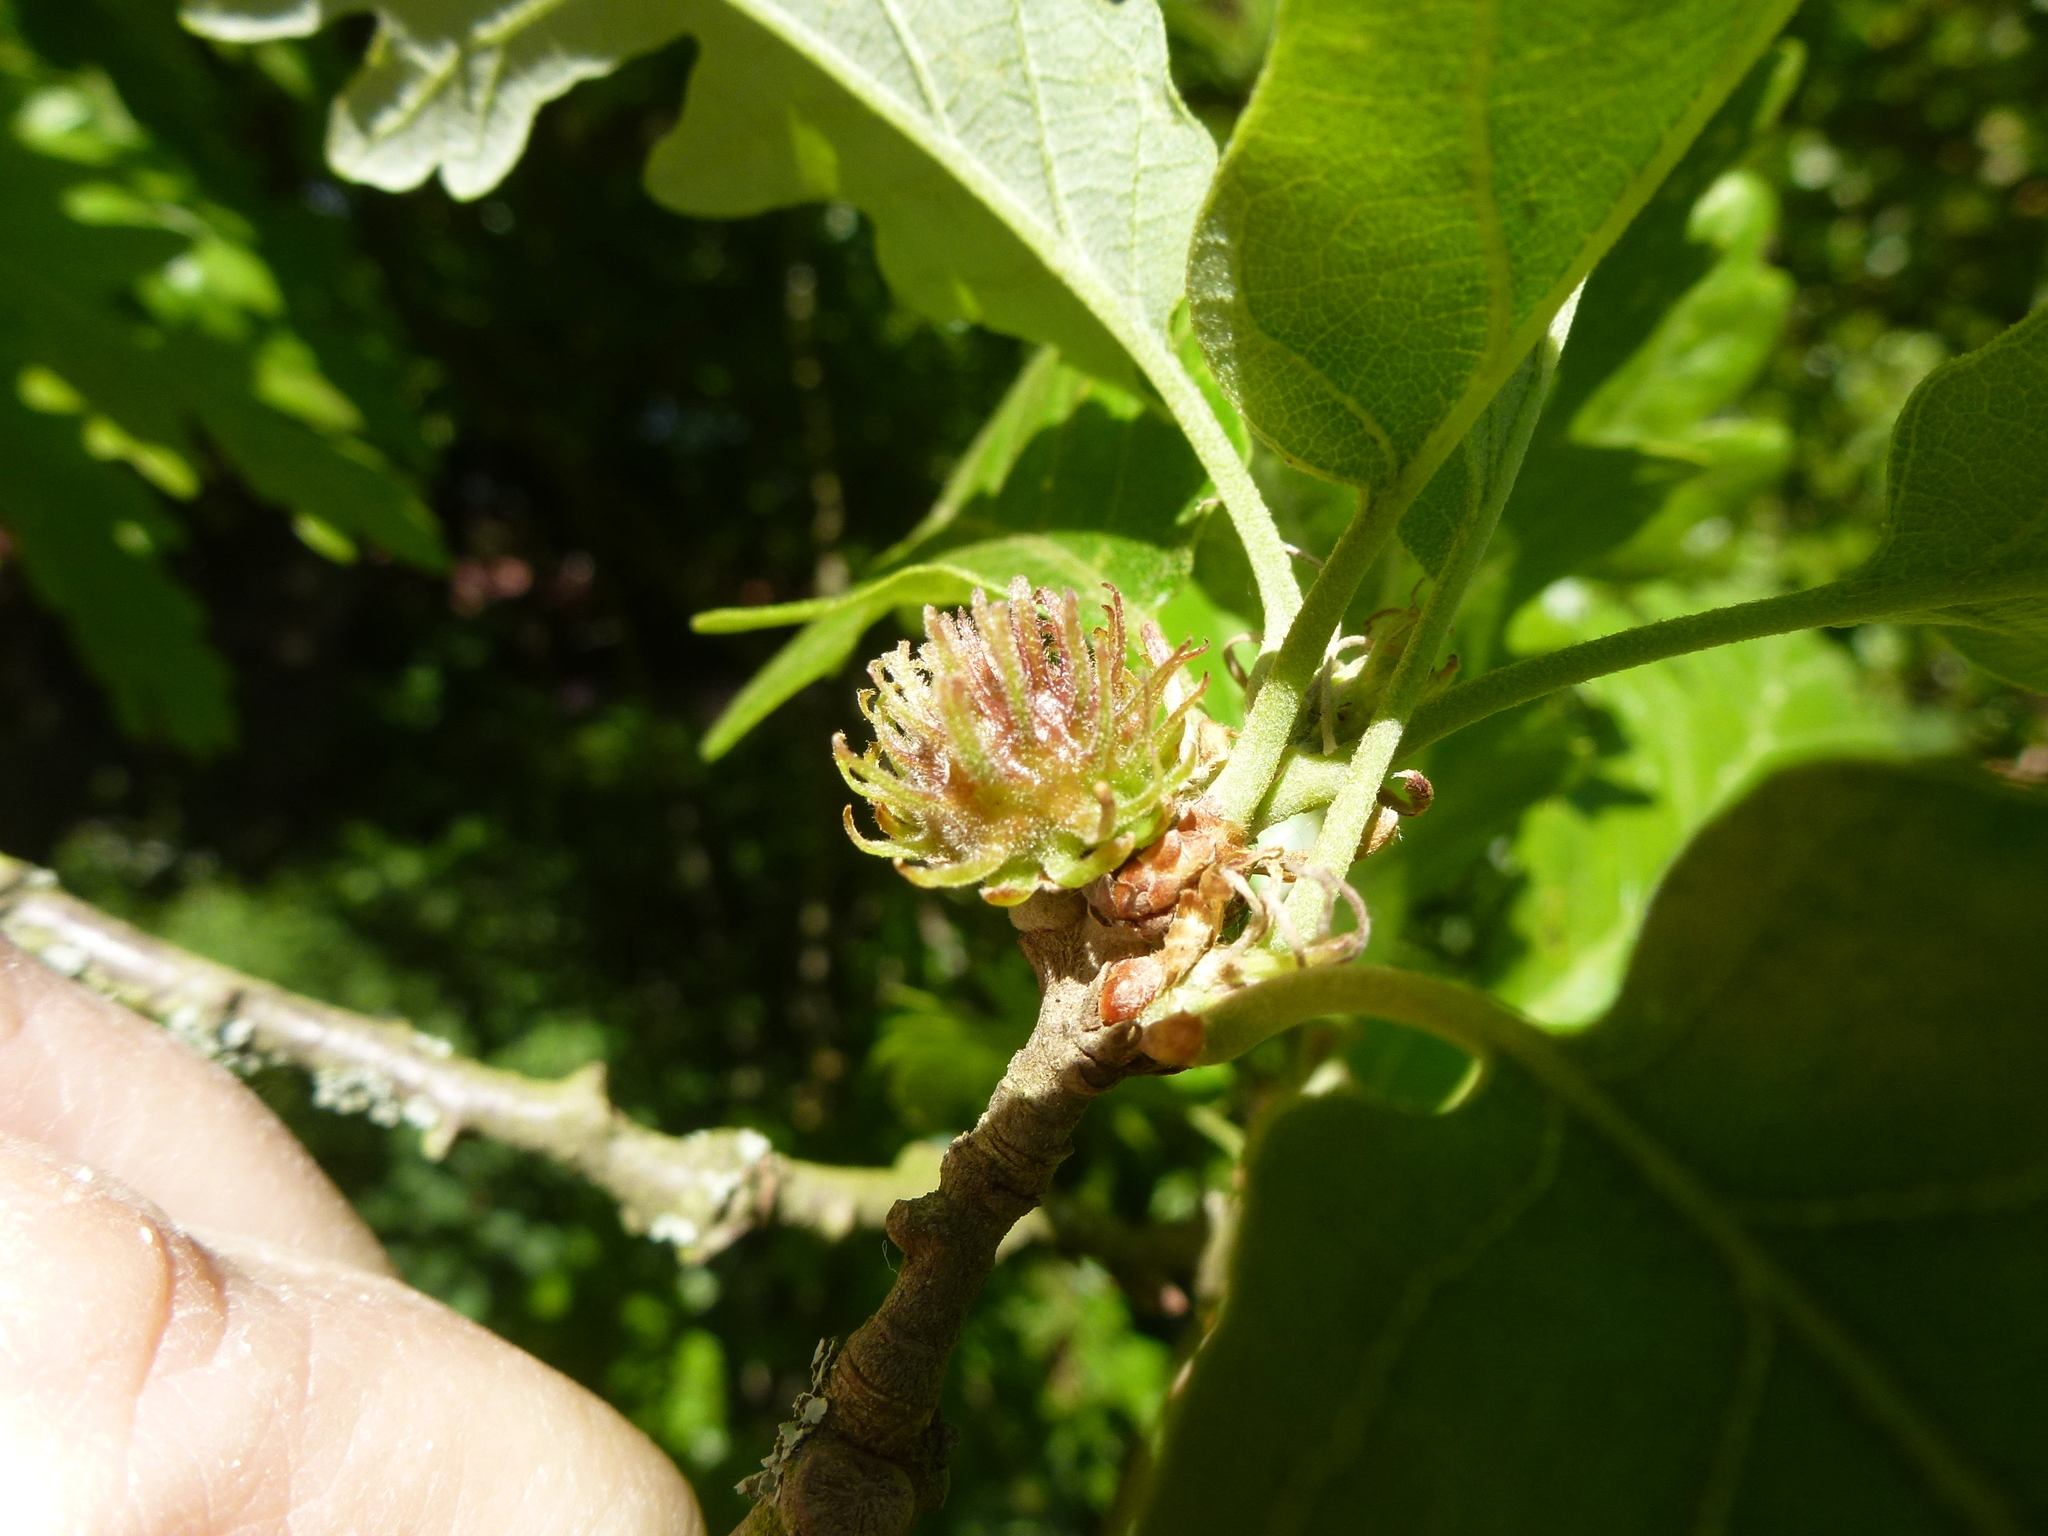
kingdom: Plantae
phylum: Tracheophyta
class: Magnoliopsida
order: Fagales
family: Fagaceae
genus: Quercus
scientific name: Quercus cerris
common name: Turkey oak
